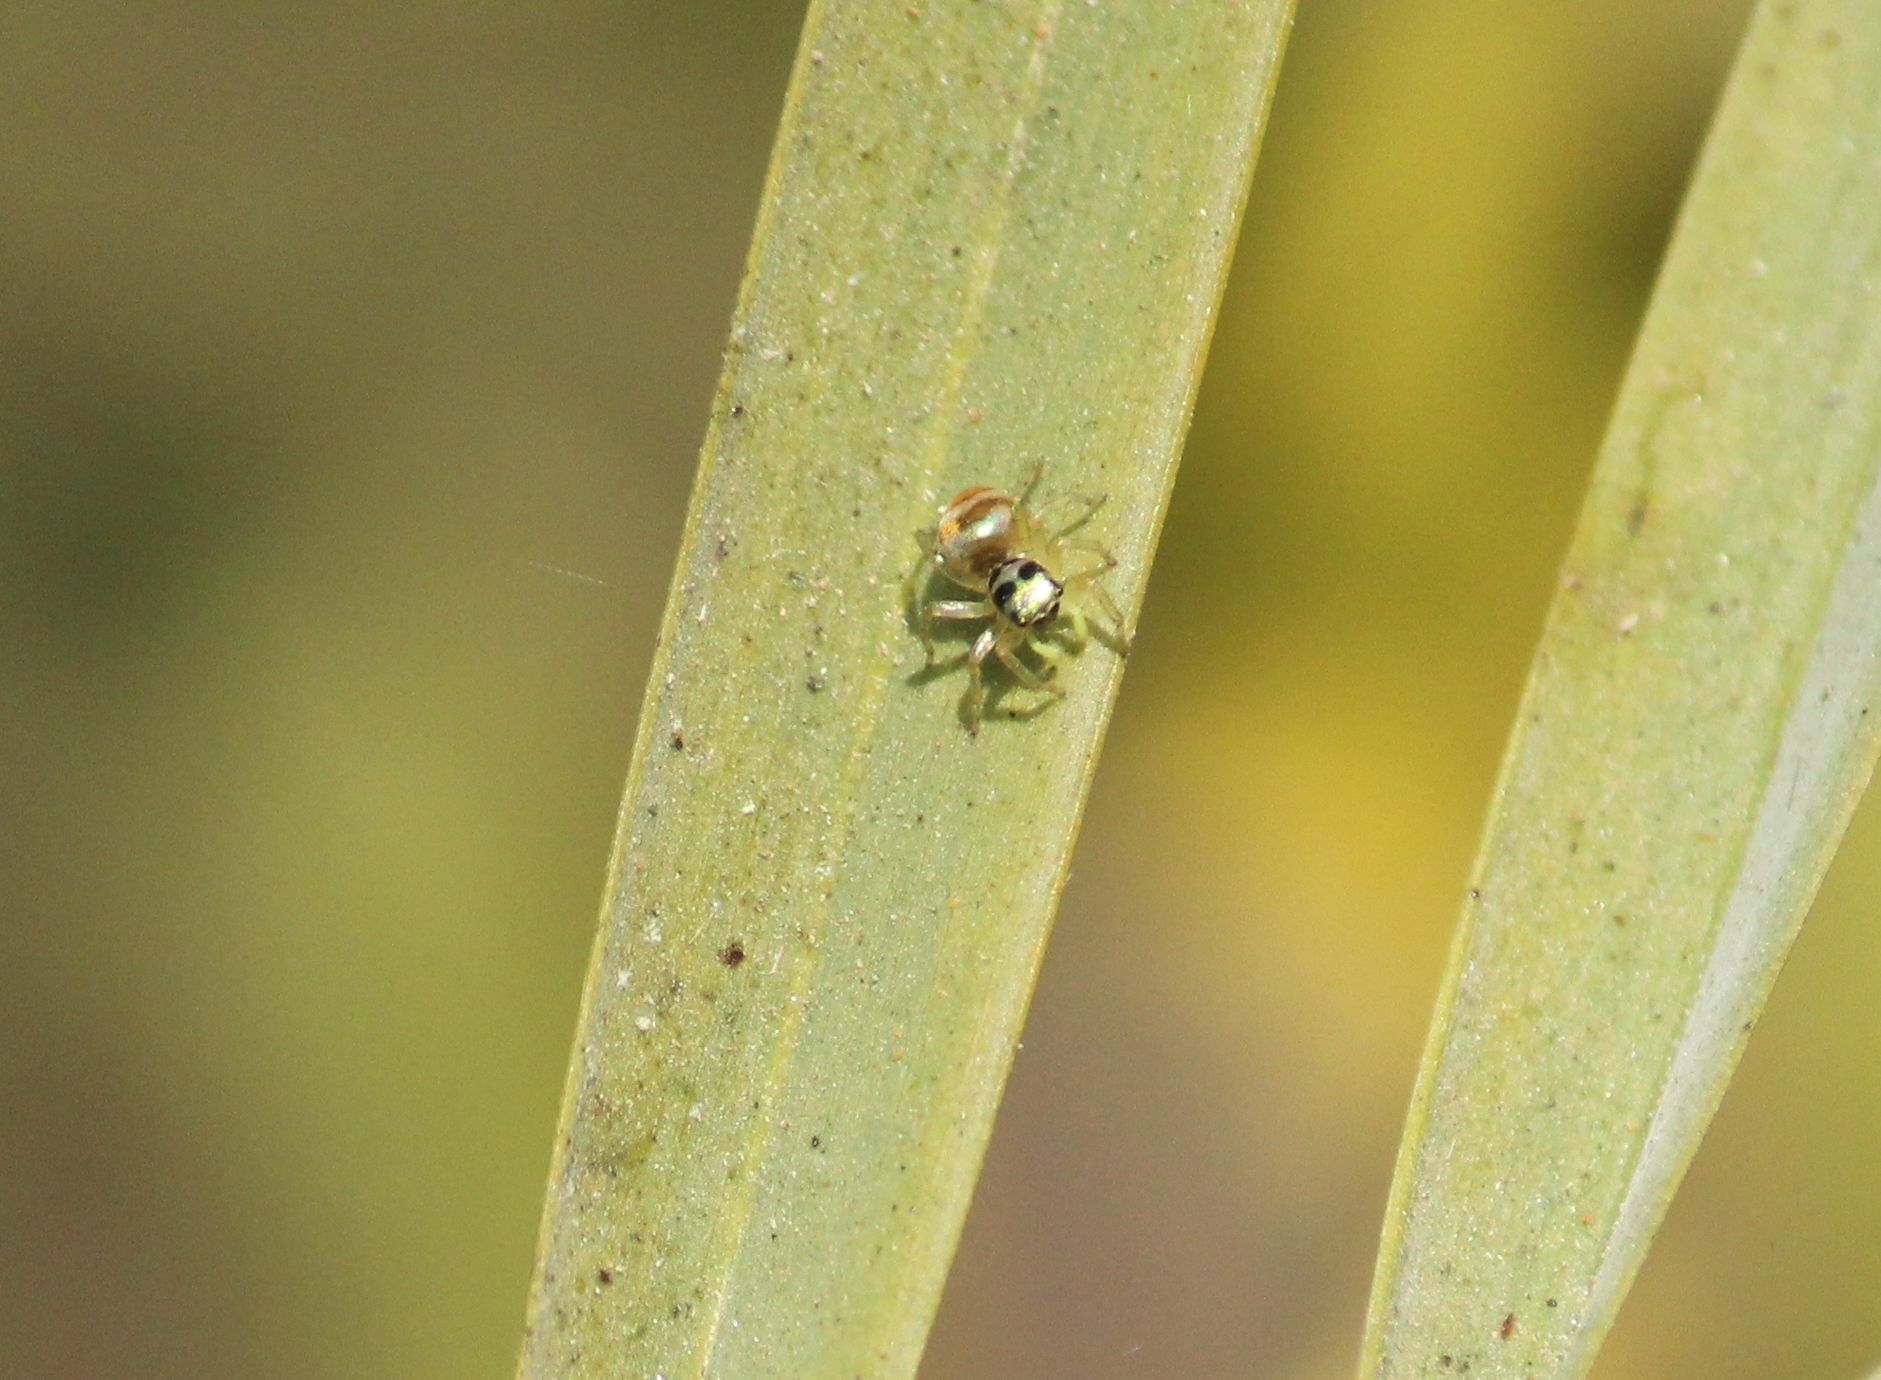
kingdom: Animalia
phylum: Arthropoda
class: Arachnida
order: Araneae
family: Salticidae
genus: Phintella
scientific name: Phintella vittata
